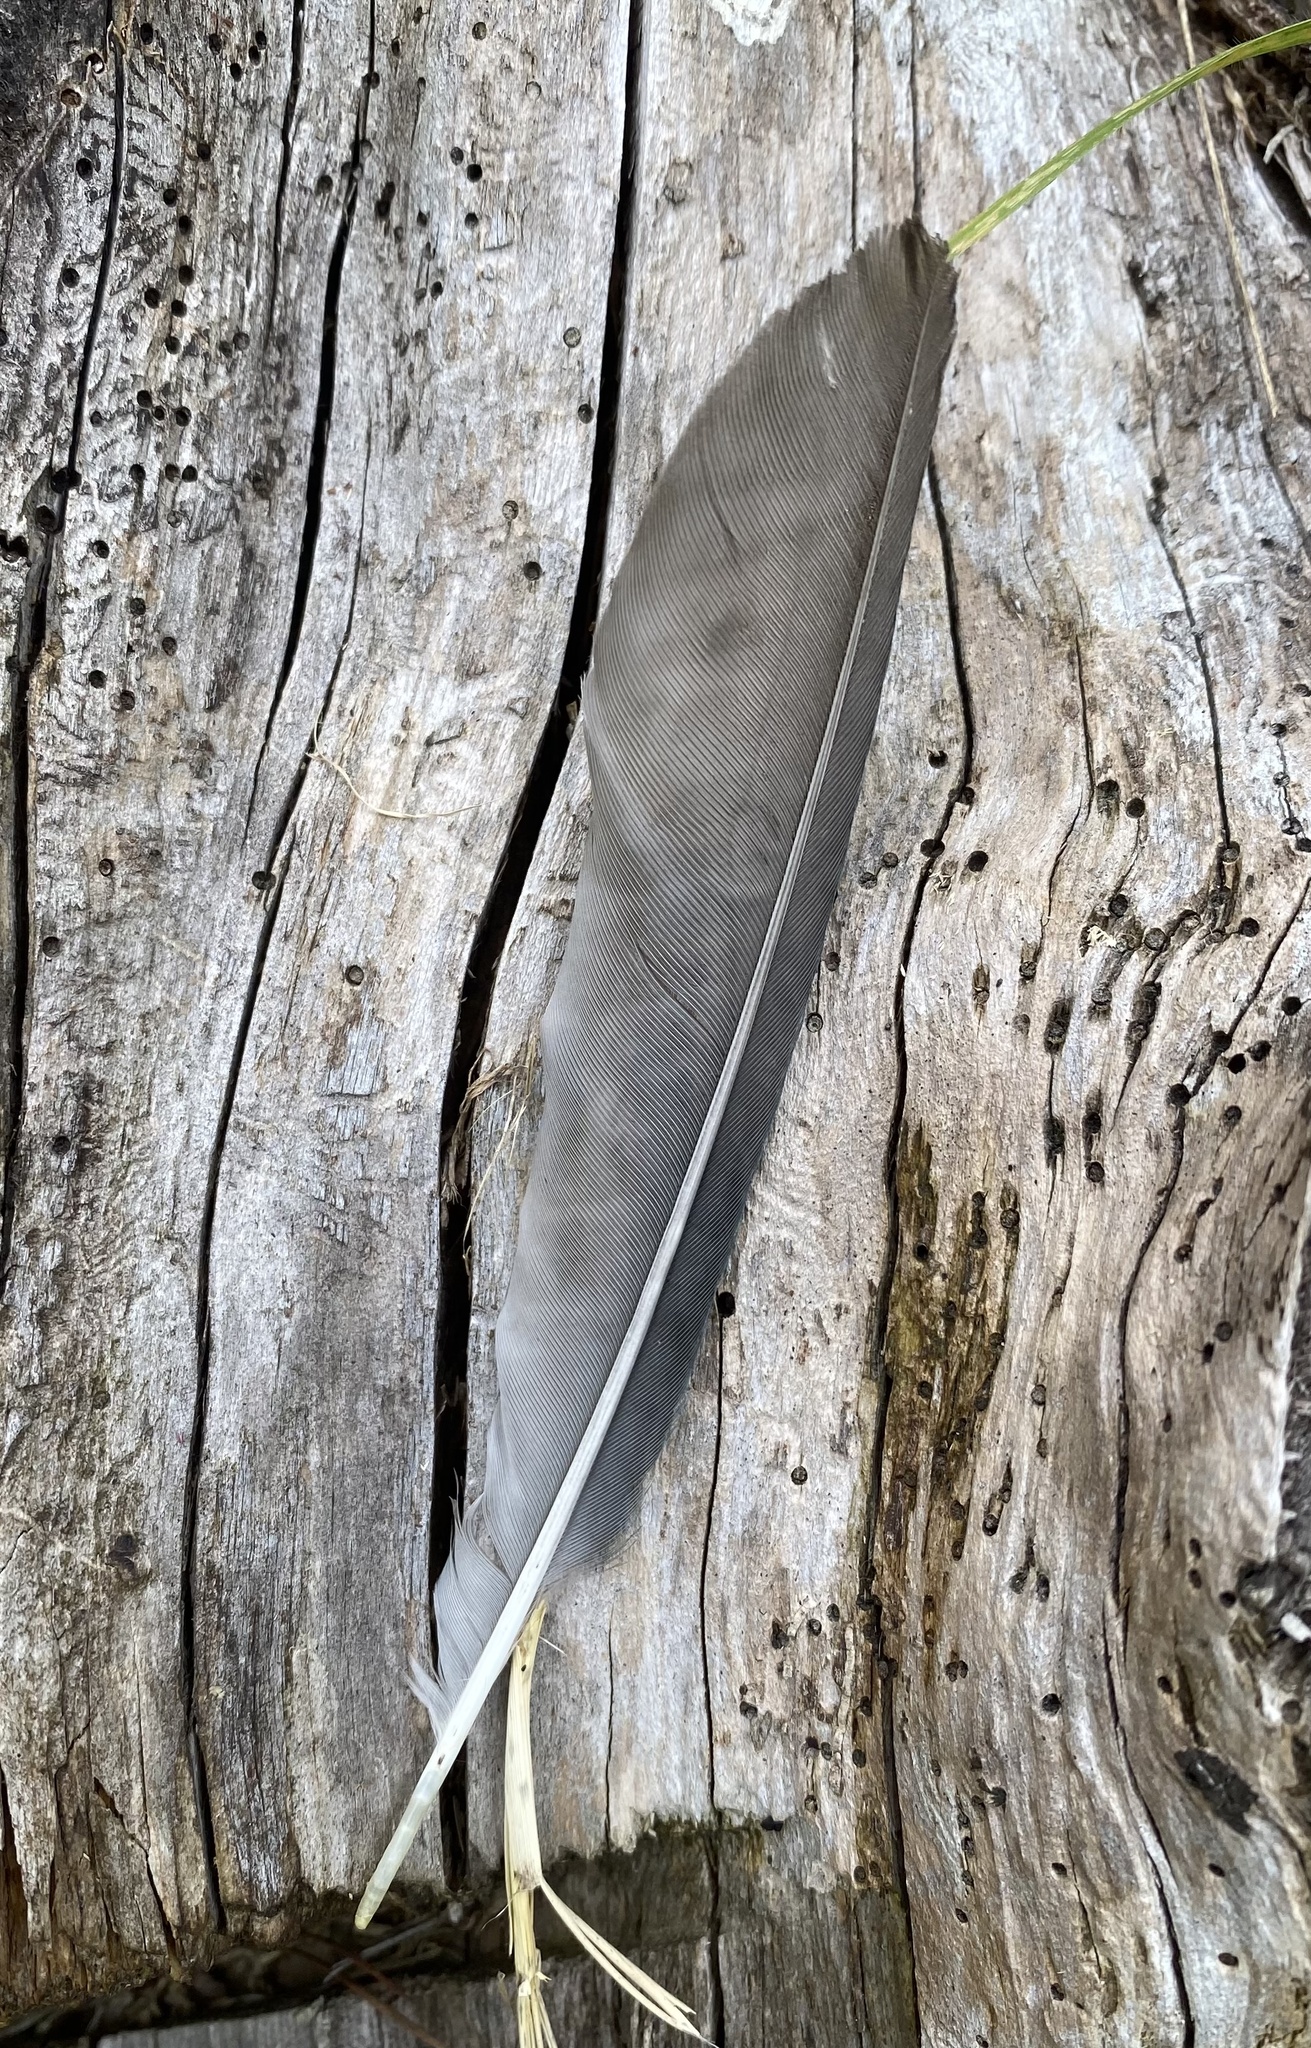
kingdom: Animalia
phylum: Chordata
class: Aves
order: Passeriformes
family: Corvidae
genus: Cyanocorax
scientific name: Cyanocorax melanocyaneus
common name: Bushy-crested jay
